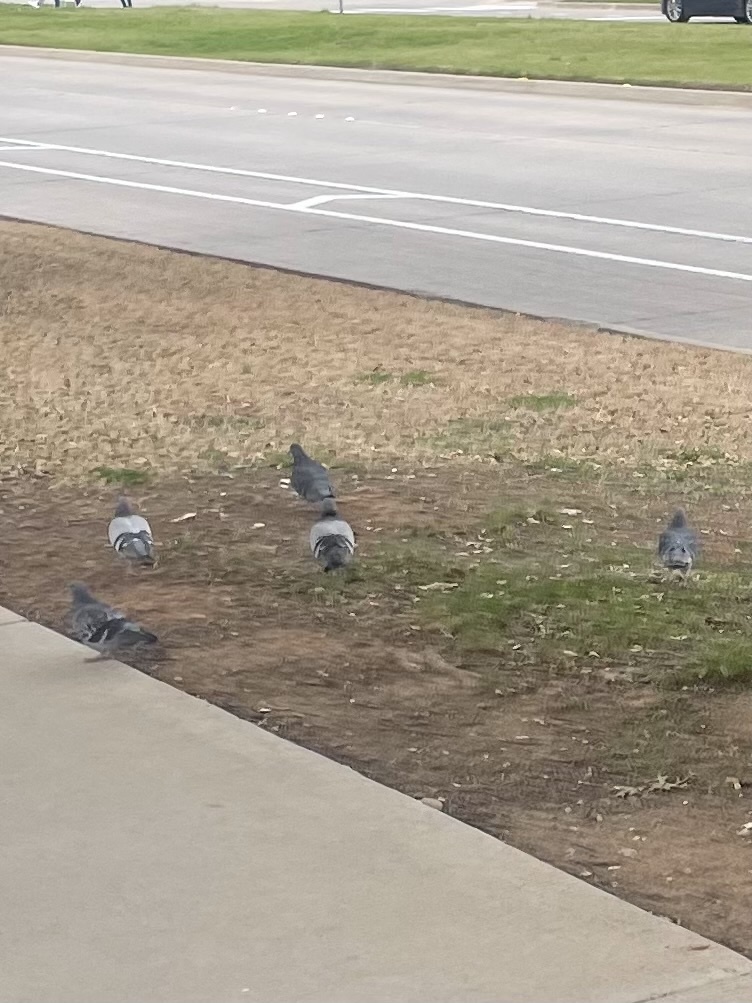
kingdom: Animalia
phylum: Chordata
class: Aves
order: Columbiformes
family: Columbidae
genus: Columba
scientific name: Columba livia
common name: Rock pigeon
